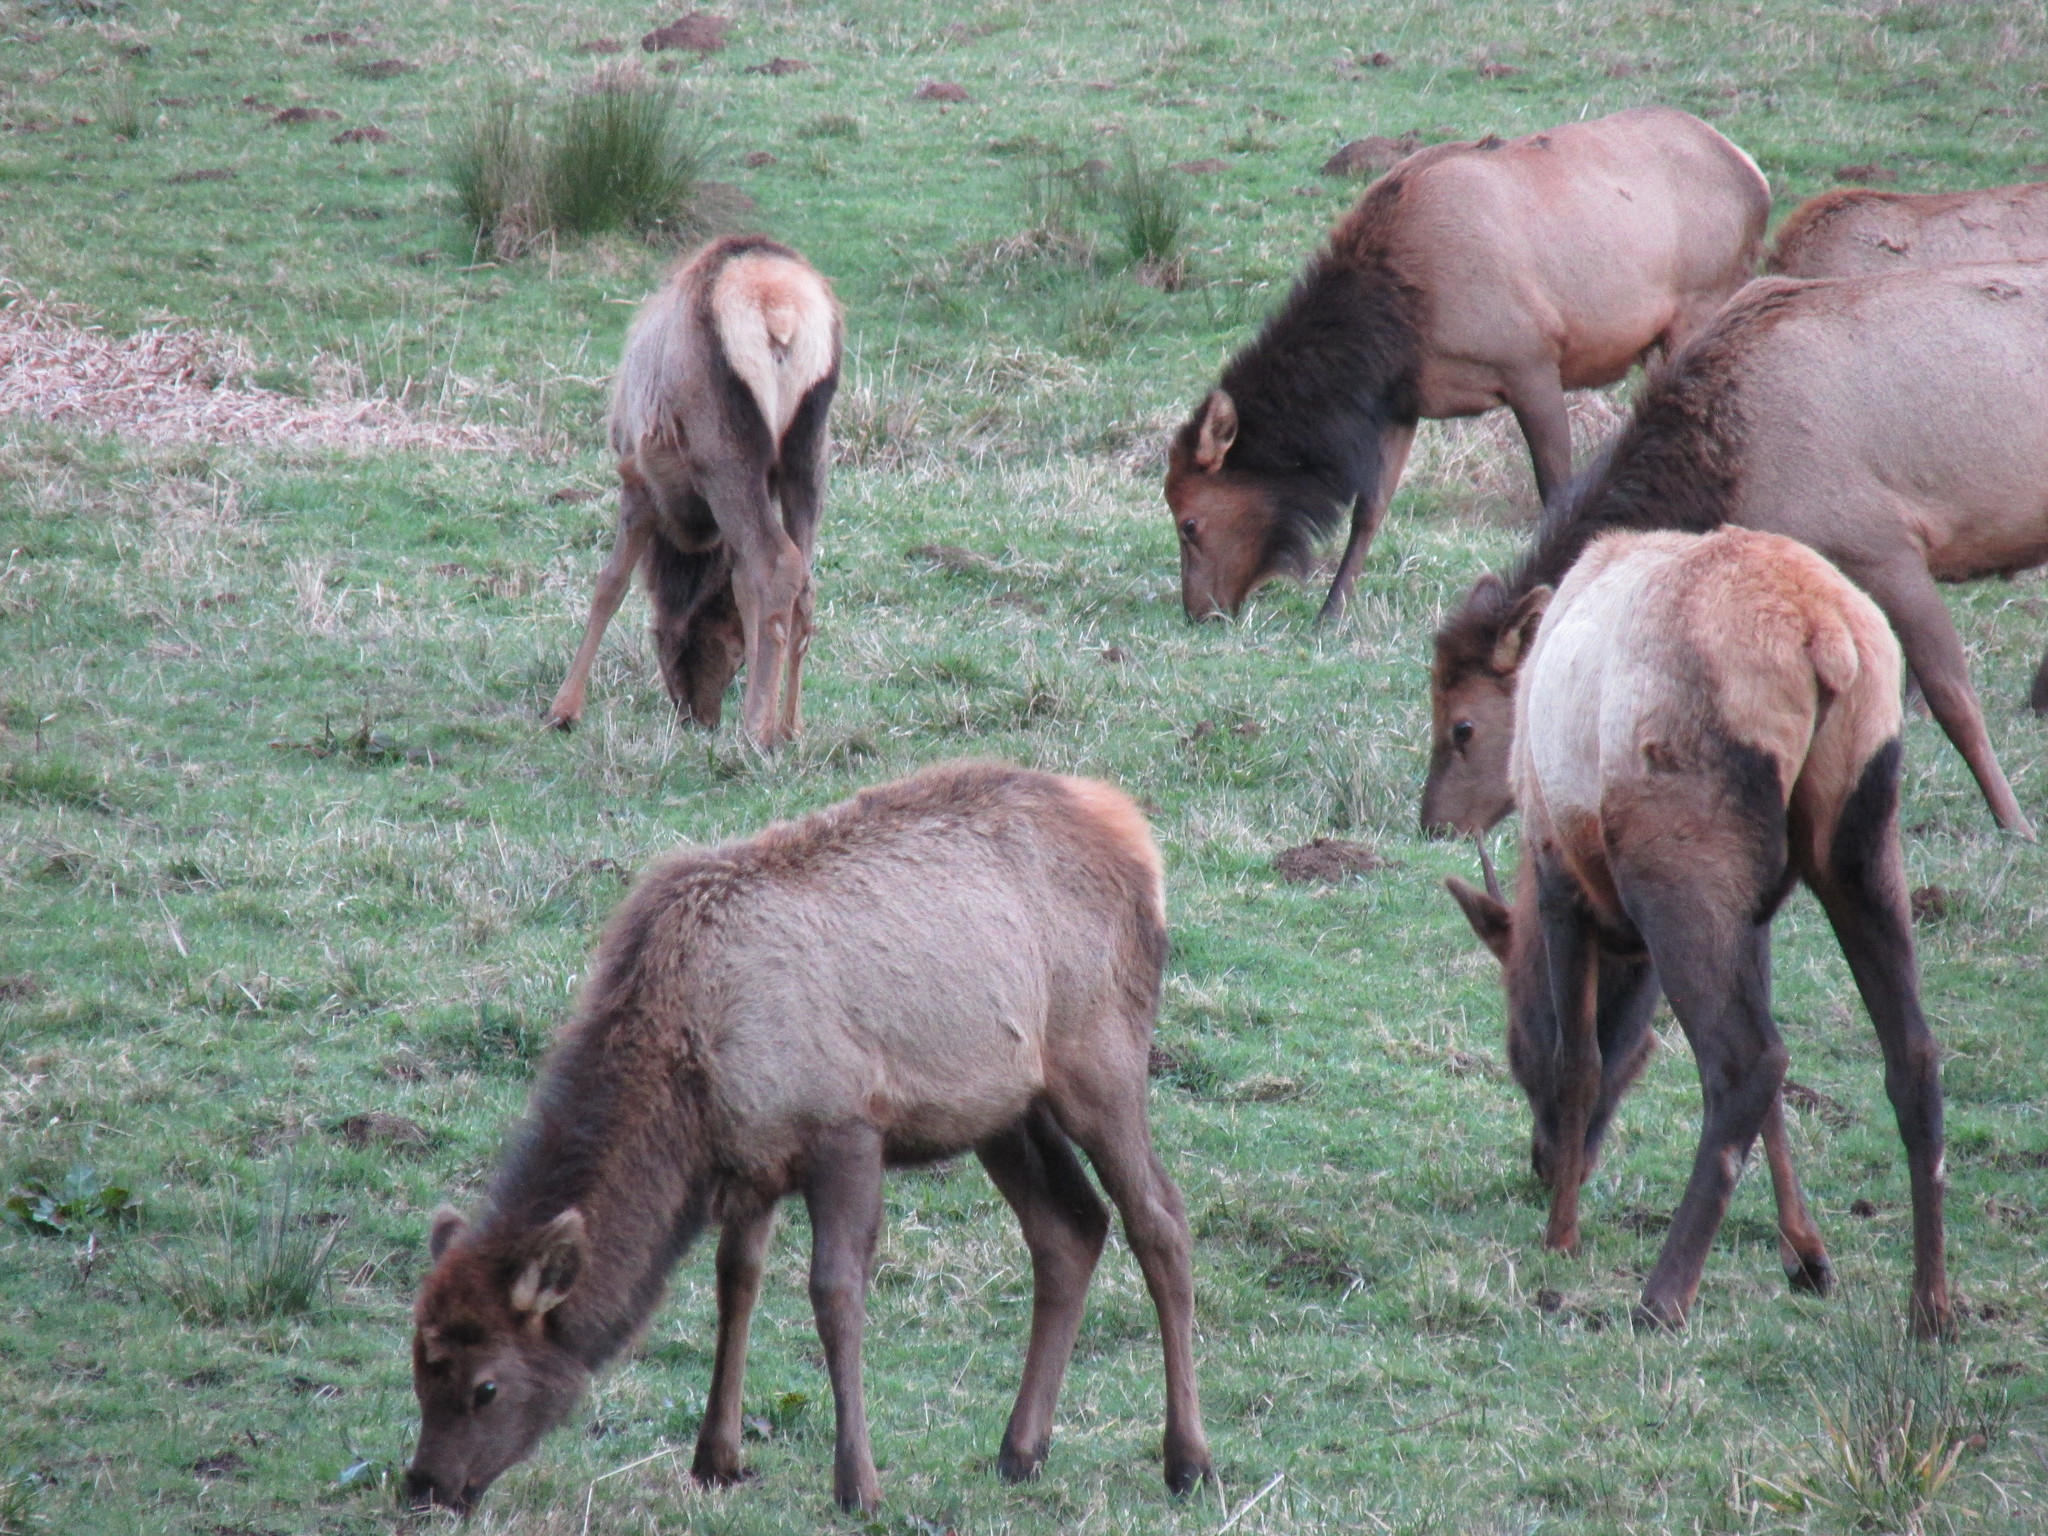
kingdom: Animalia
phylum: Chordata
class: Mammalia
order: Artiodactyla
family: Cervidae
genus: Cervus
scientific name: Cervus elaphus
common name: Red deer
